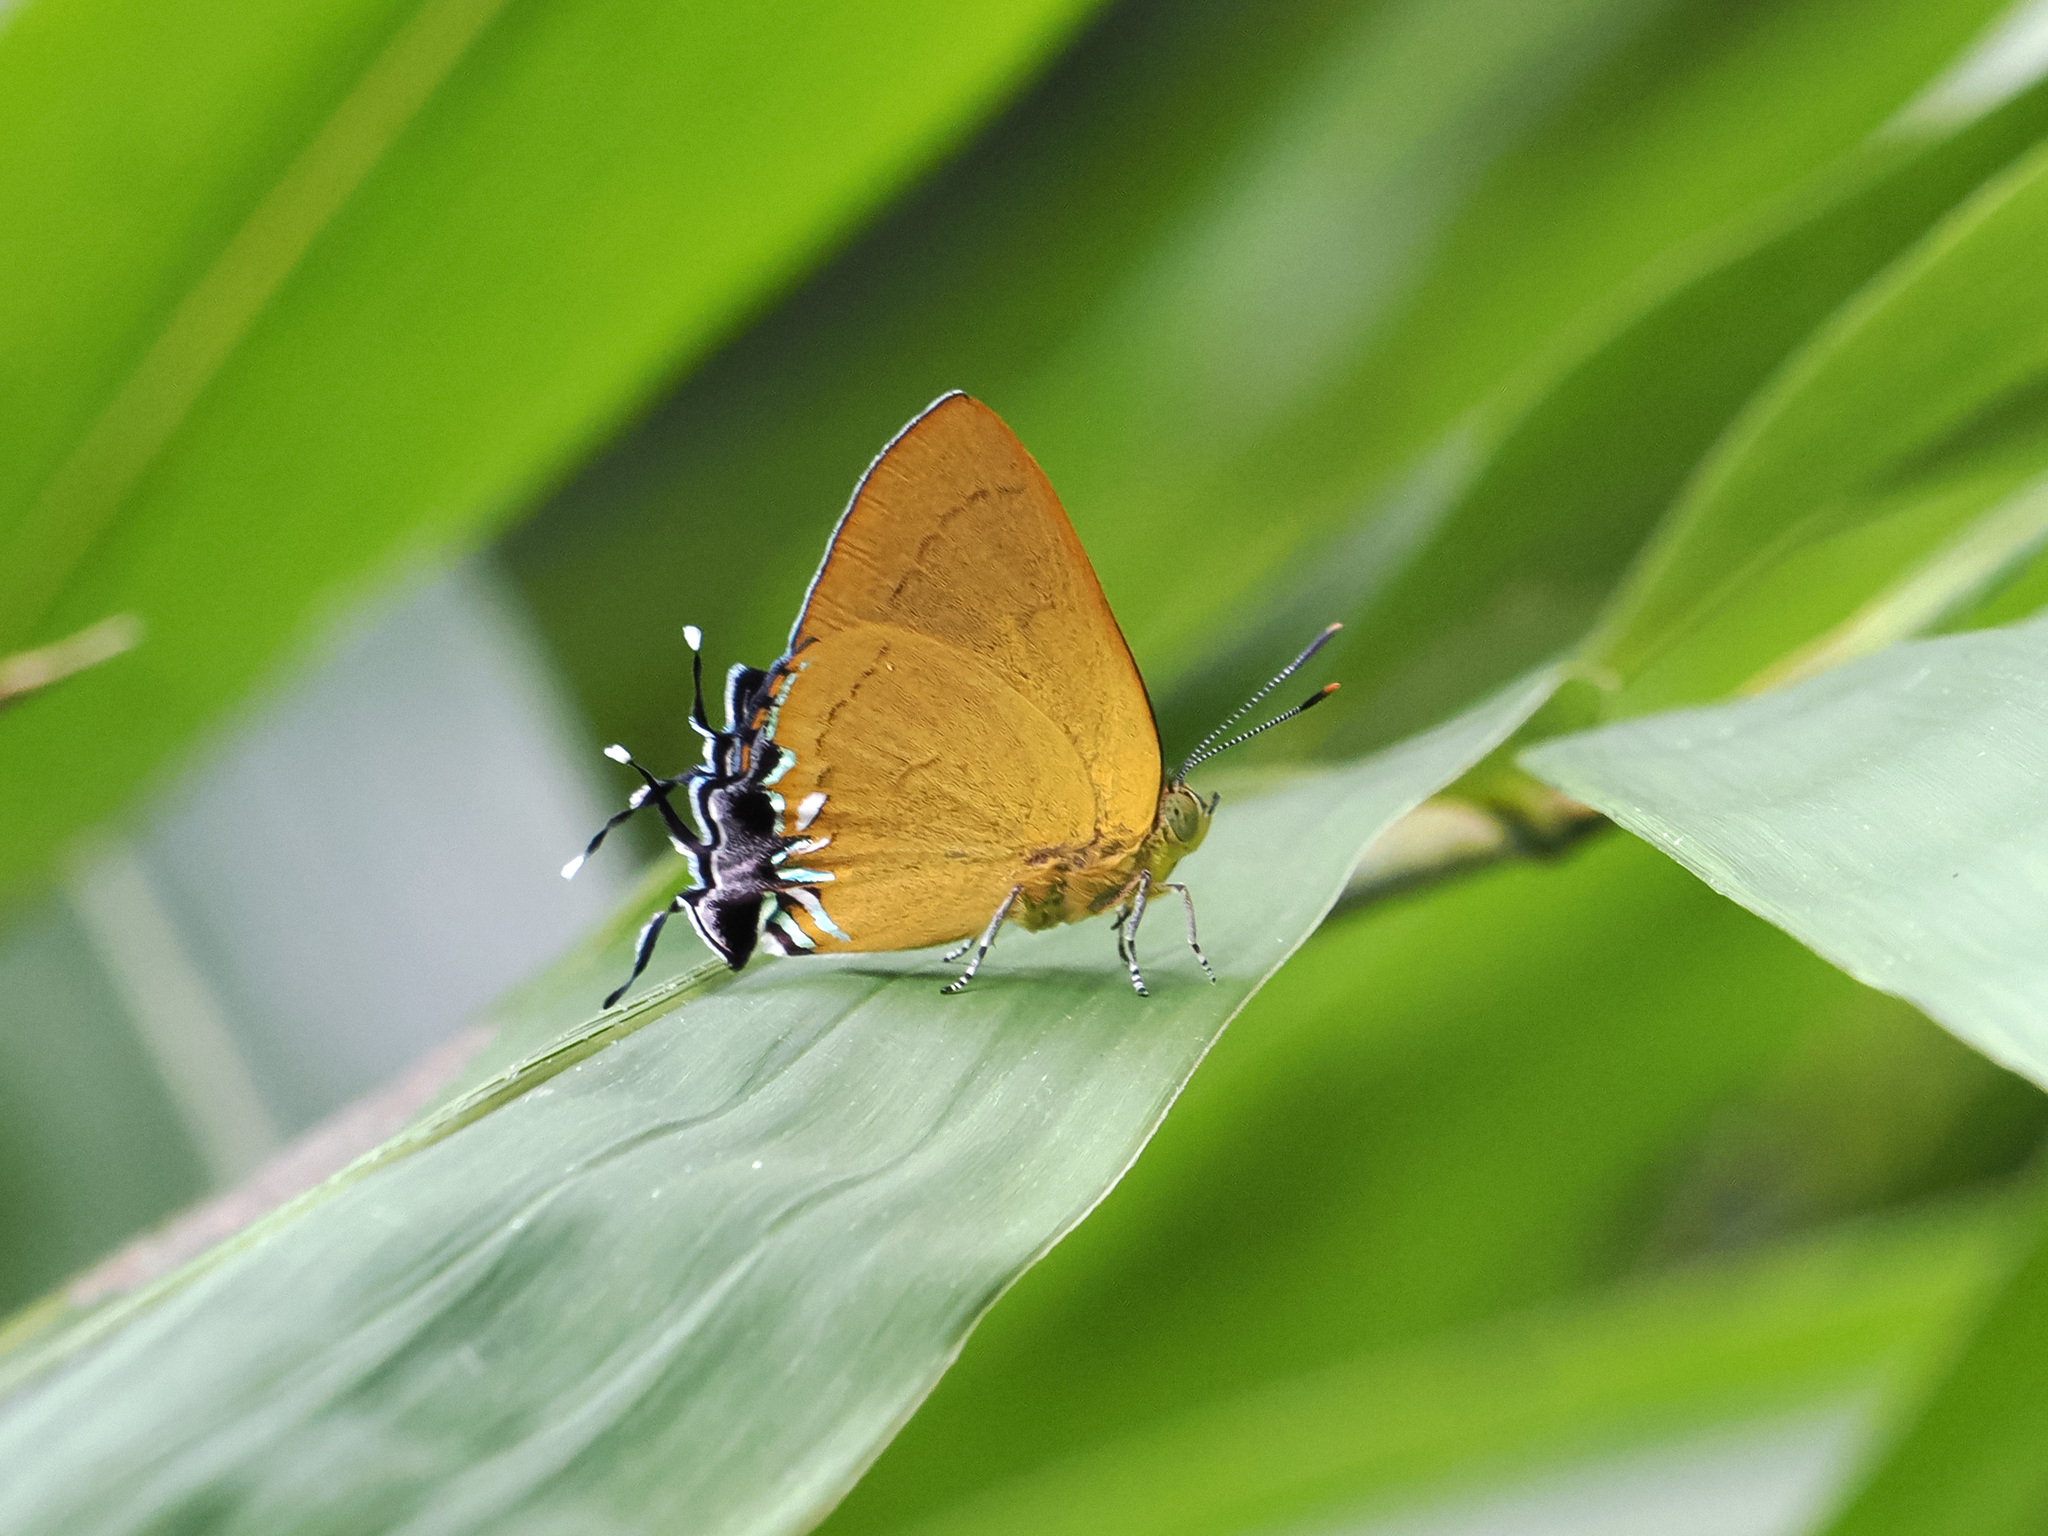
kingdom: Animalia
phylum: Arthropoda
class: Insecta
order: Lepidoptera
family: Lycaenidae
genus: Remelana
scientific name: Remelana jangala
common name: Chocolate royal
